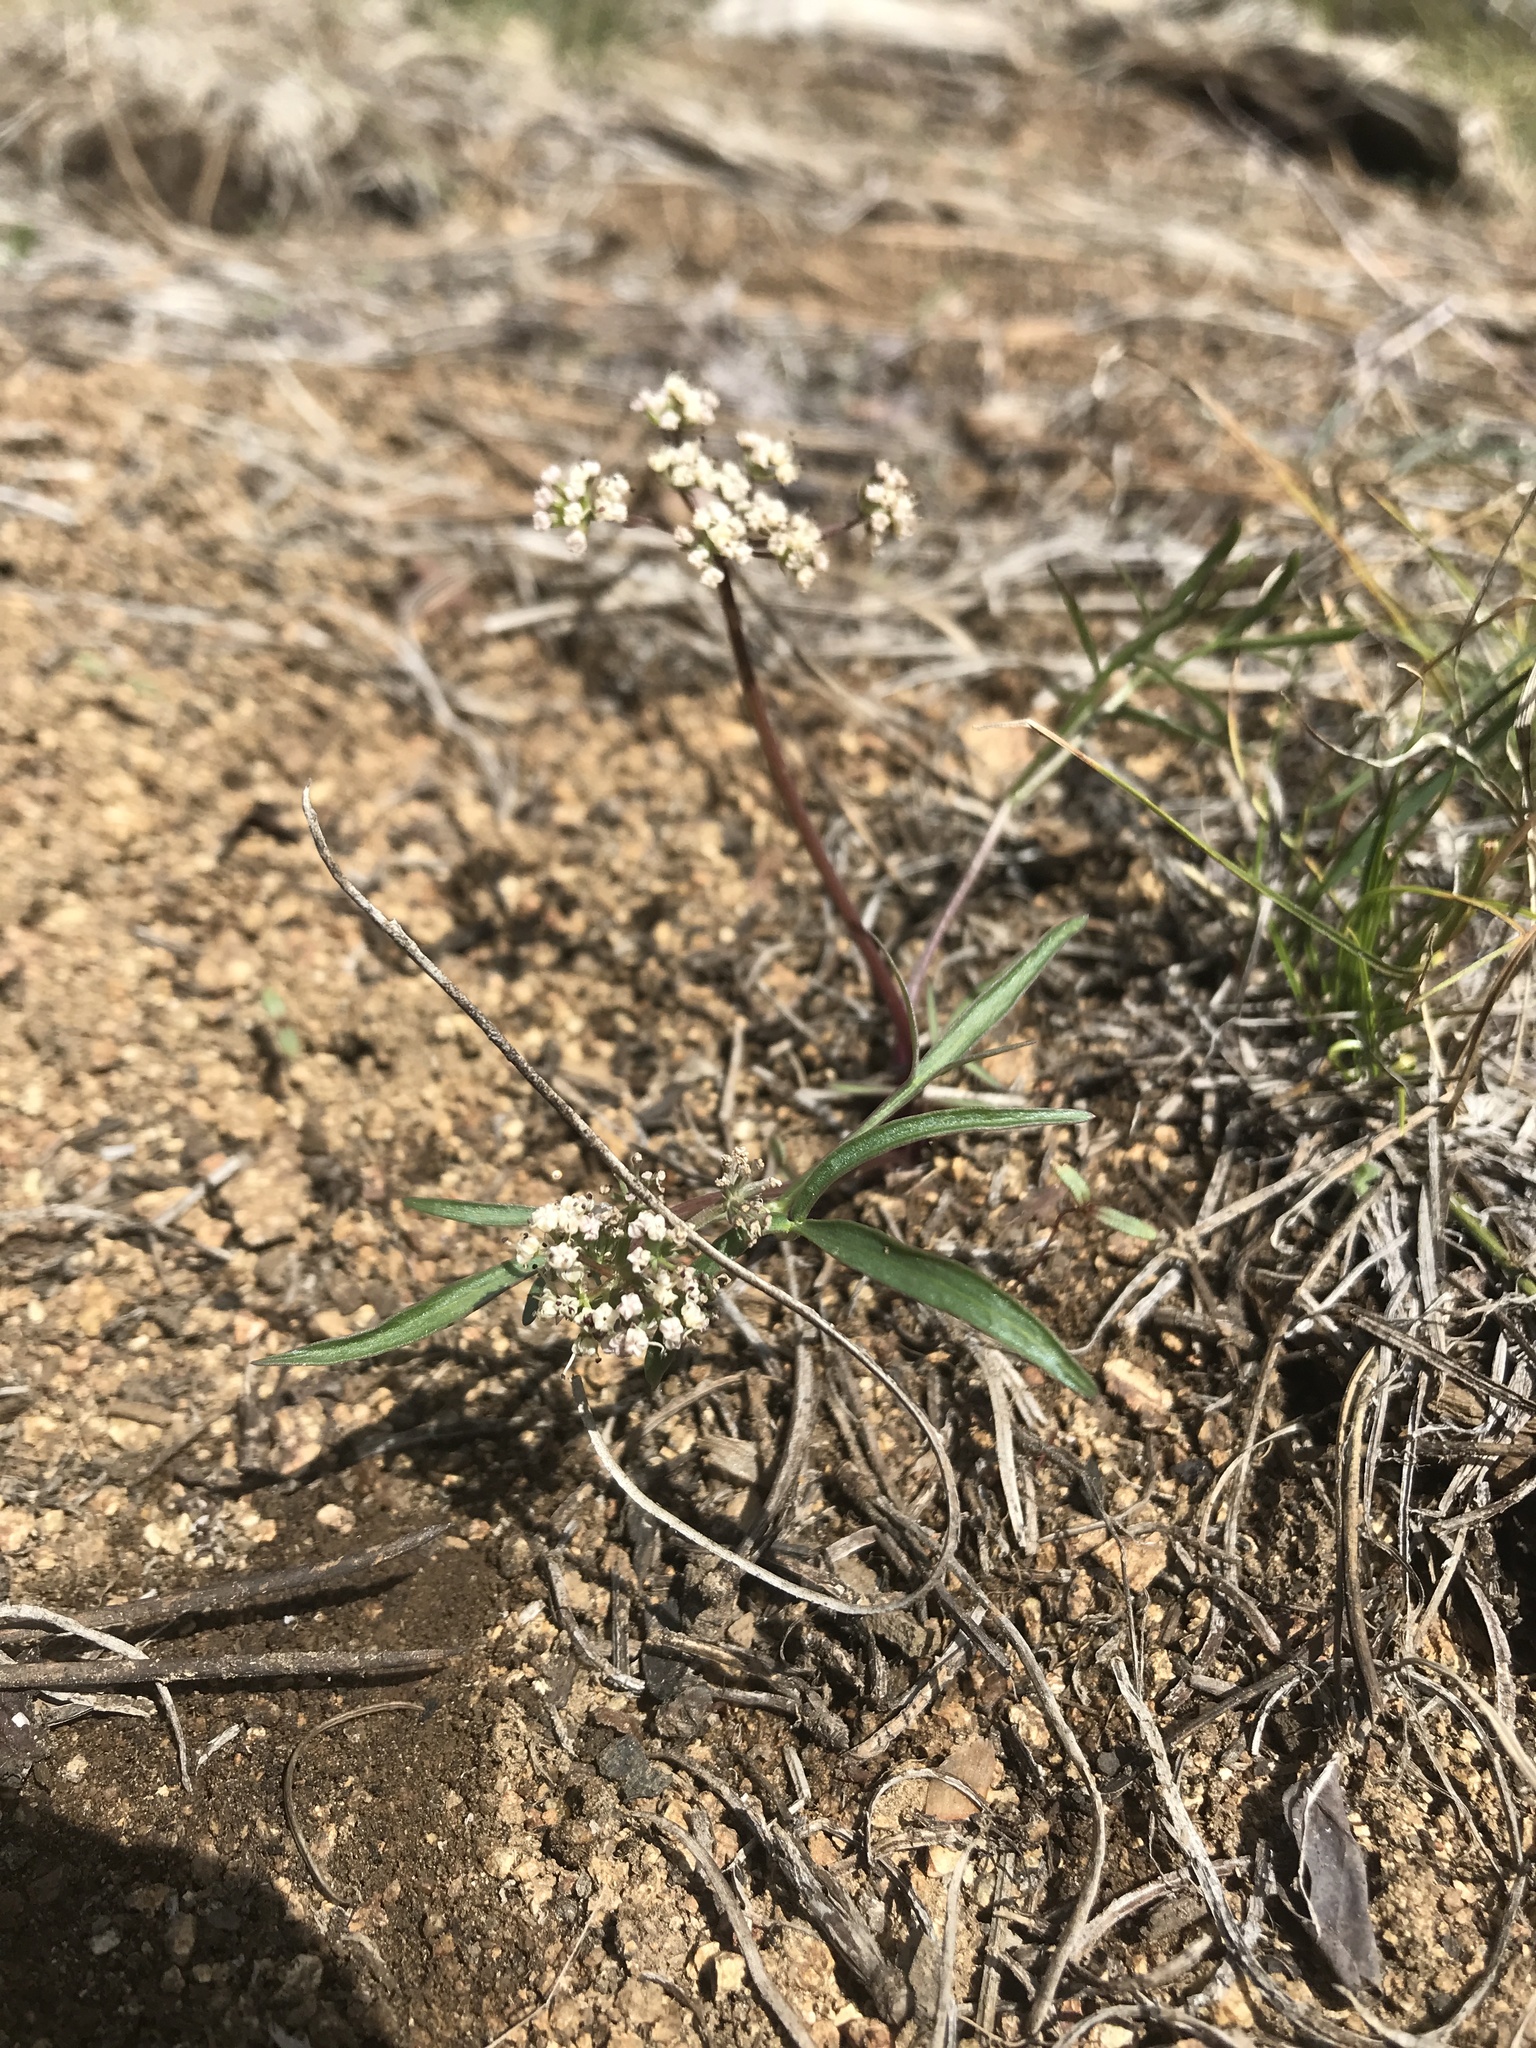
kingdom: Plantae
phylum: Tracheophyta
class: Magnoliopsida
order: Apiales
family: Apiaceae
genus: Lomatium
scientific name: Lomatium geyeri
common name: Geyer's biscuitroot
